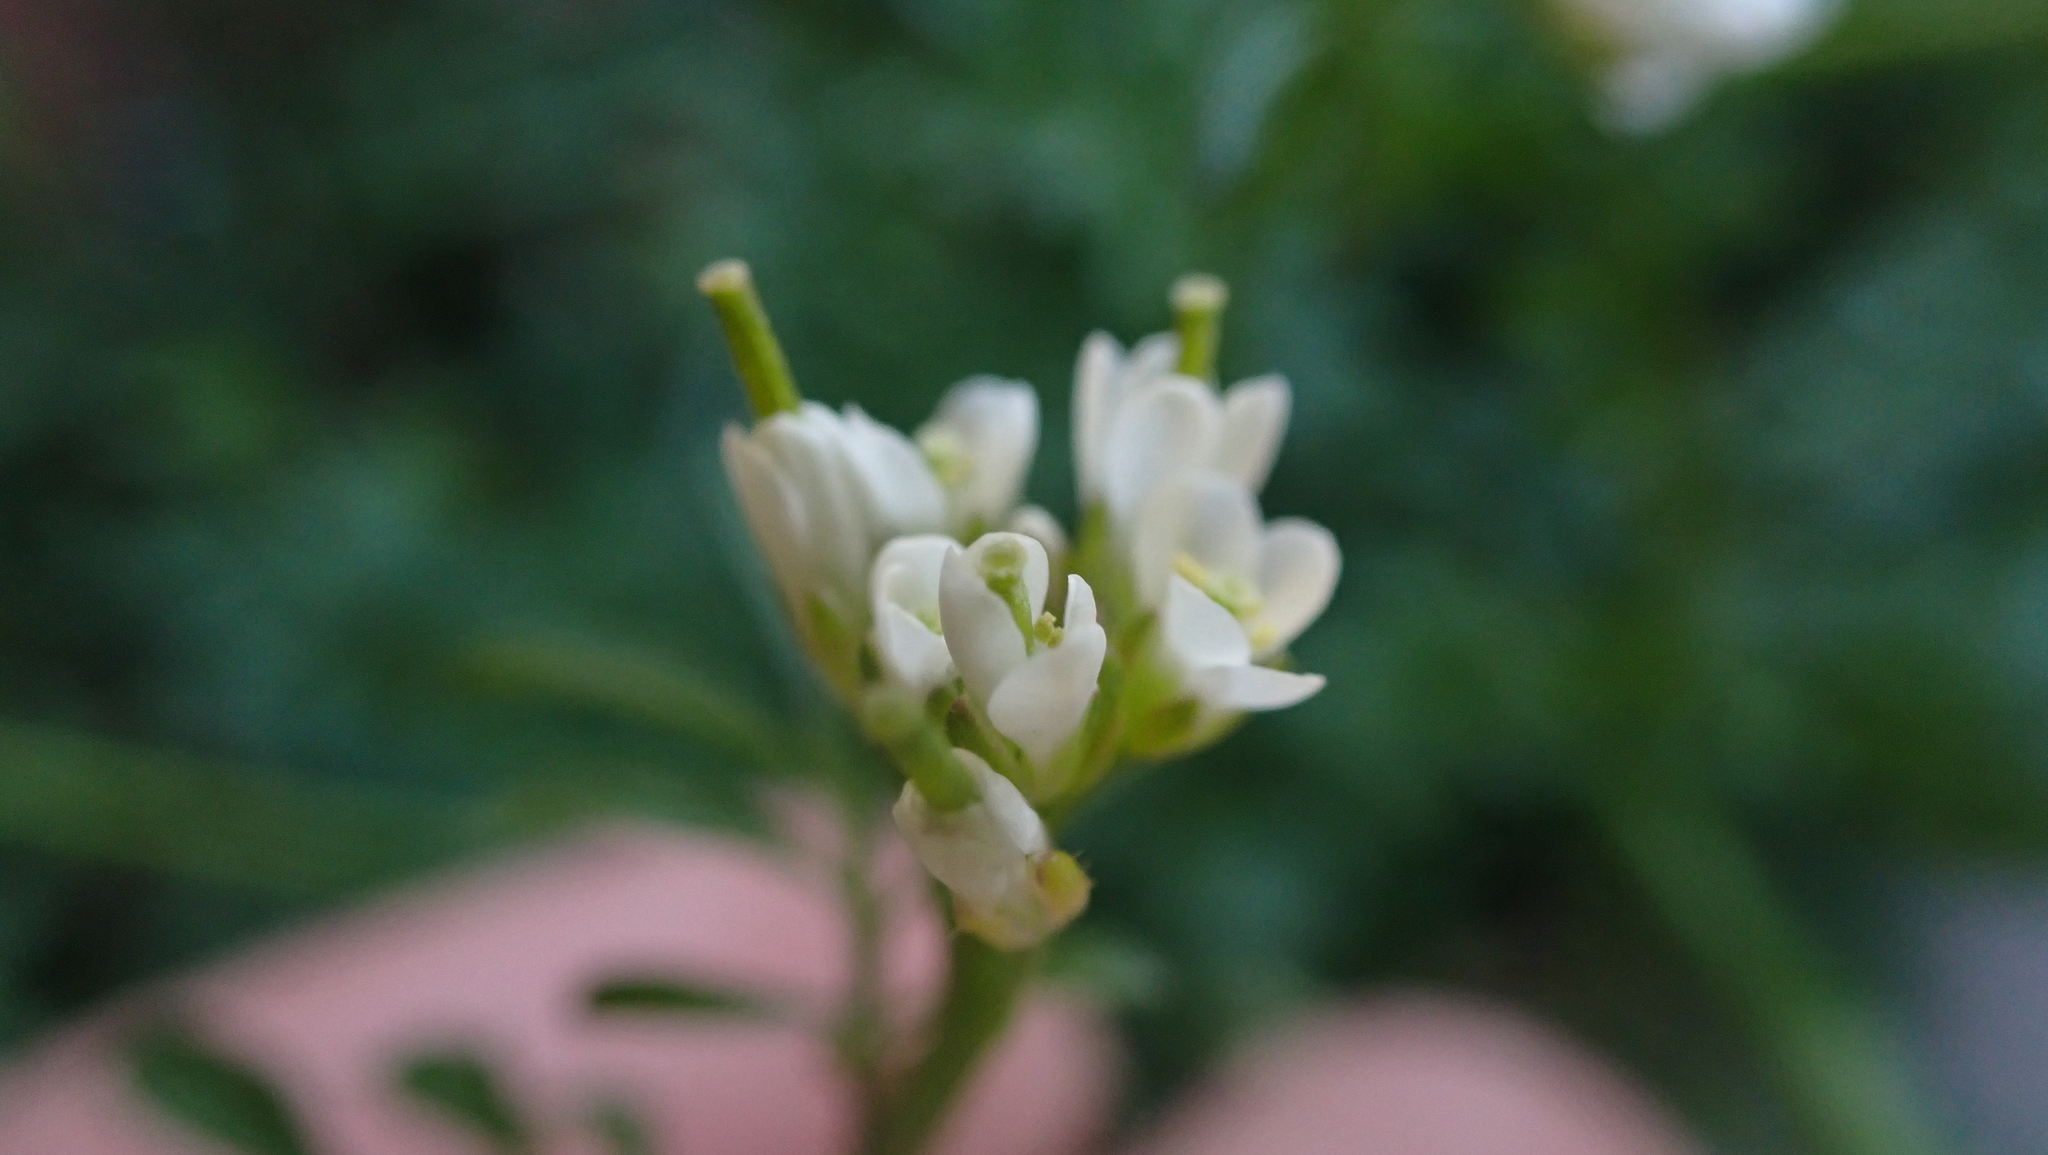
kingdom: Plantae
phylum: Tracheophyta
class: Magnoliopsida
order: Brassicales
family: Brassicaceae
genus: Cardamine
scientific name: Cardamine hirsuta
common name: Hairy bittercress
